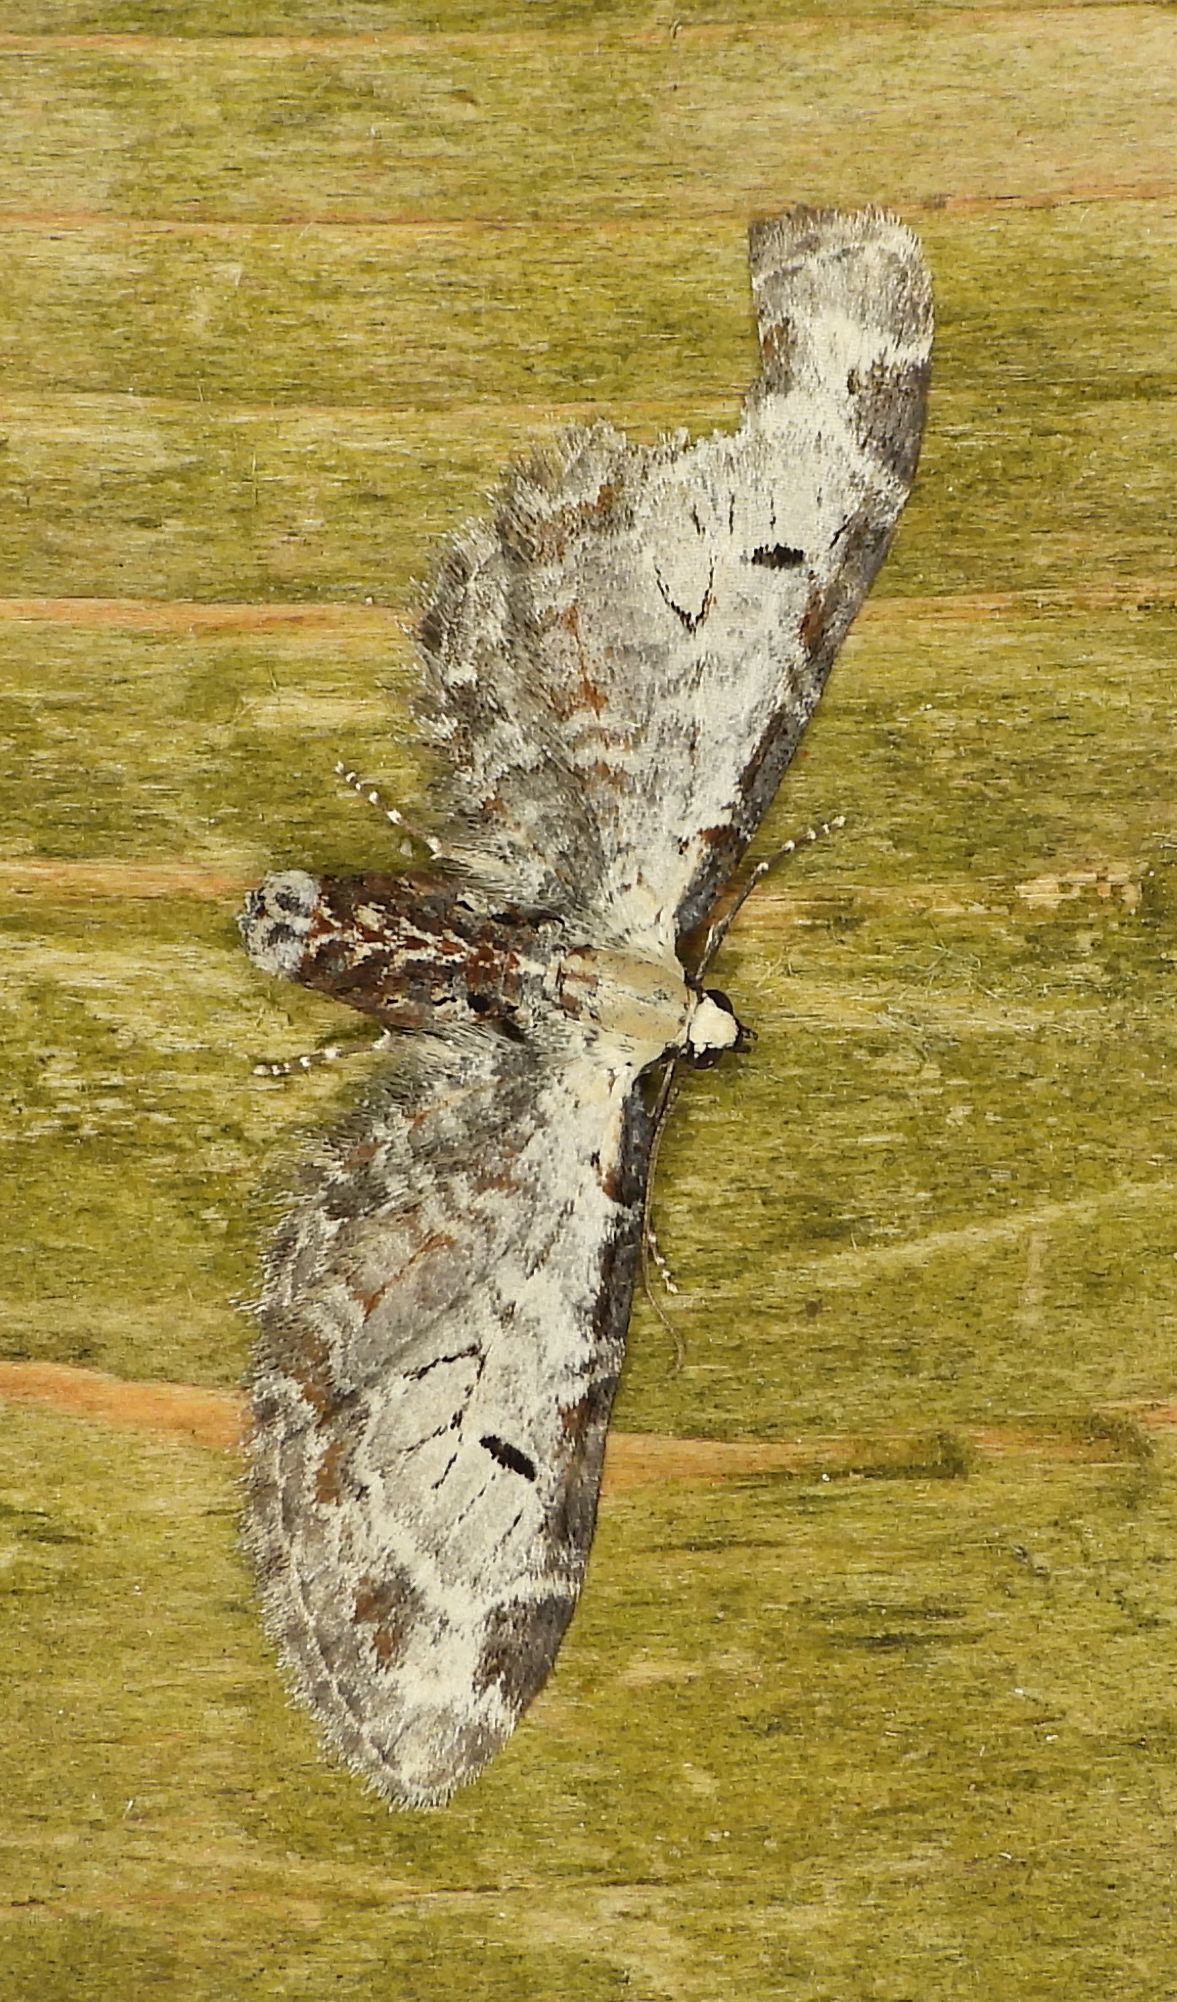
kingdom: Animalia
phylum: Arthropoda
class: Insecta
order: Lepidoptera
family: Geometridae
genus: Eupithecia
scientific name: Eupithecia ravocostaliata
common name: Great varigated pug
